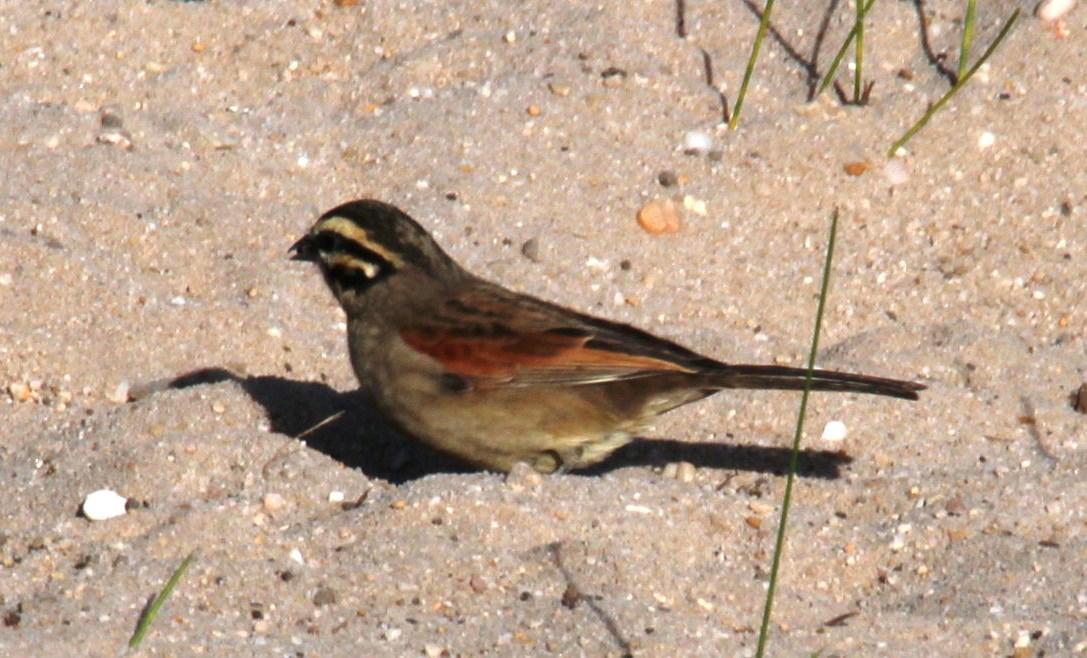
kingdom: Animalia
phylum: Chordata
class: Aves
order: Passeriformes
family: Emberizidae
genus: Emberiza
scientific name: Emberiza capensis
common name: Cape bunting
